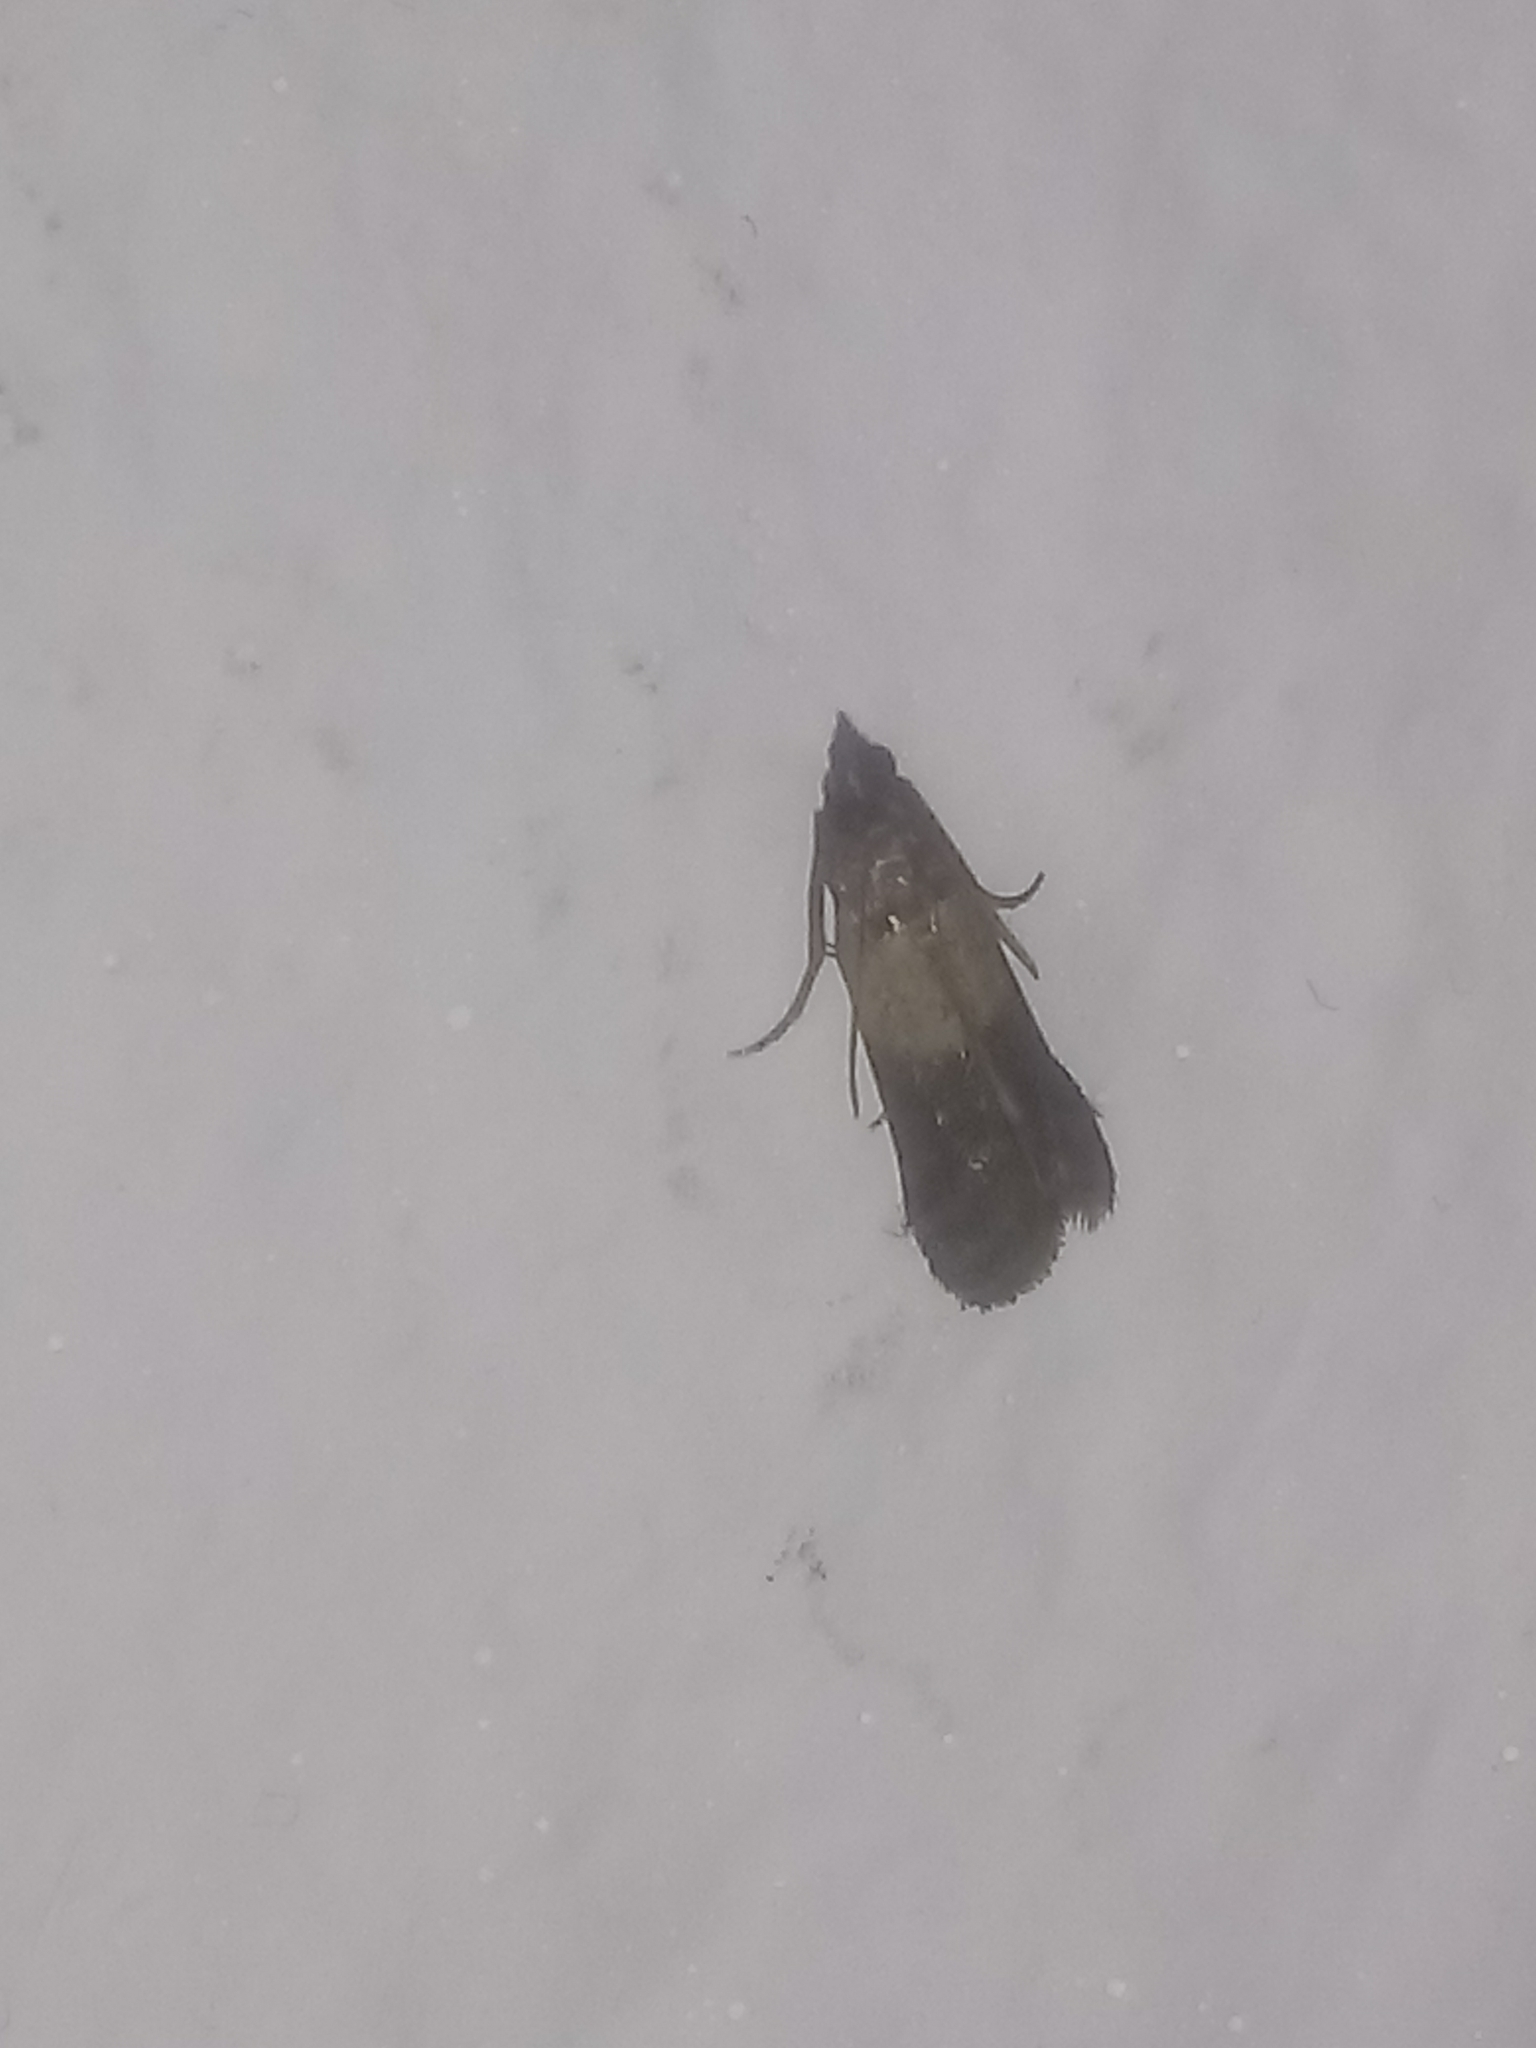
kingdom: Animalia
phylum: Arthropoda
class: Insecta
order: Lepidoptera
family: Pyralidae
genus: Plodia
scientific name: Plodia interpunctella
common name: Indian meal moth
